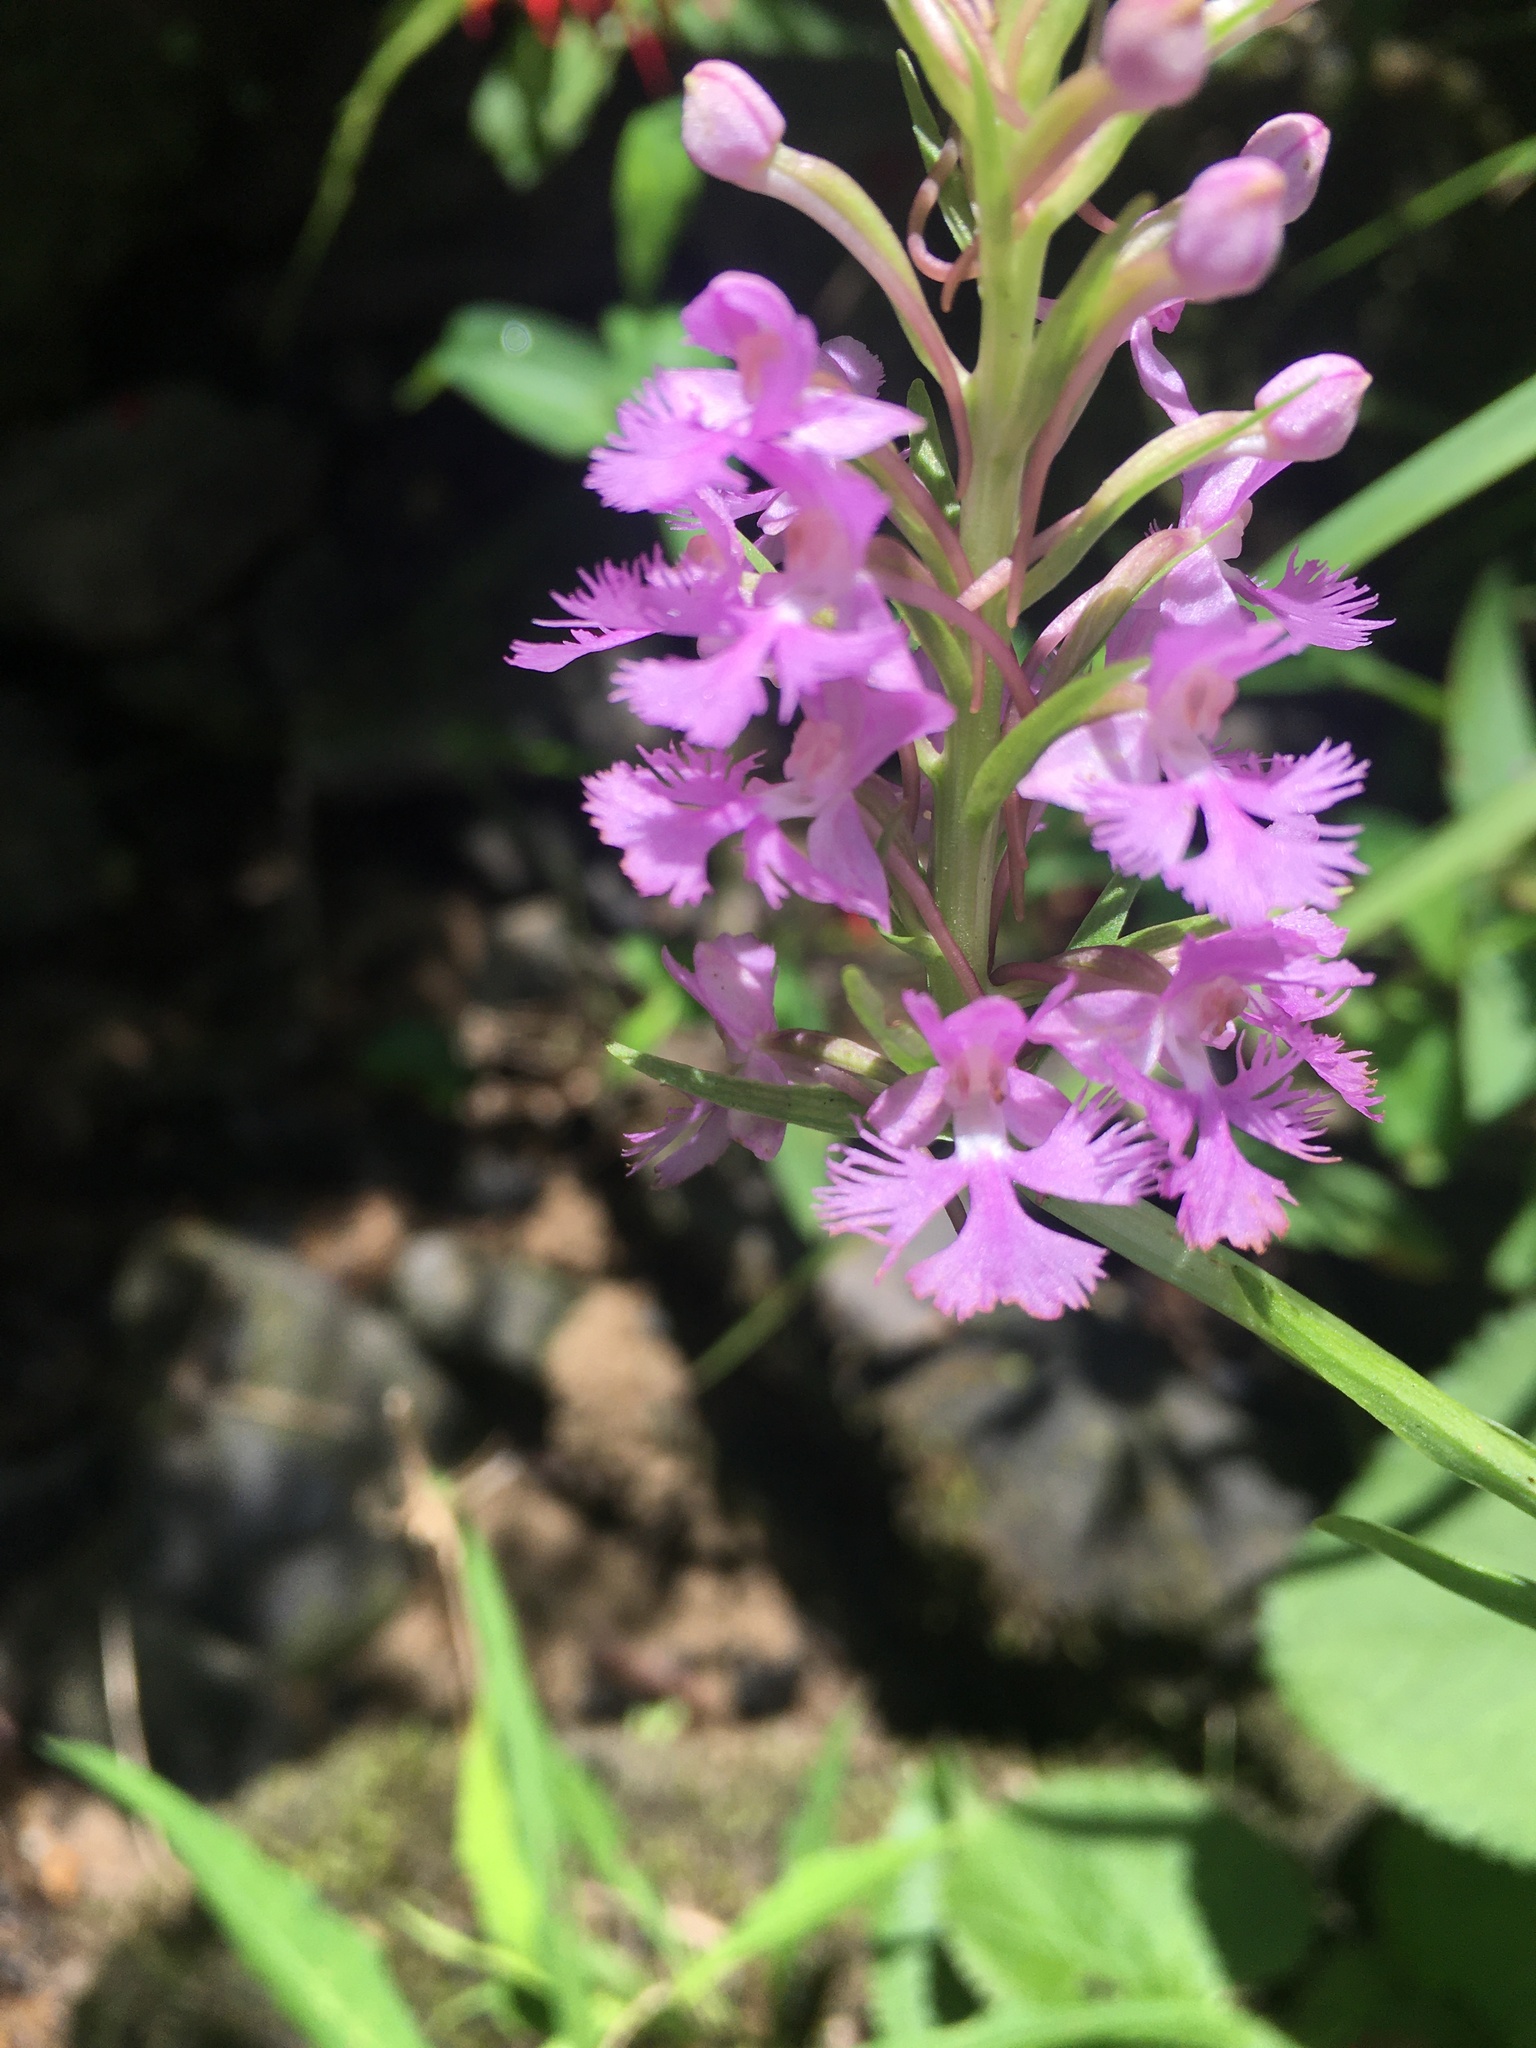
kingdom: Plantae
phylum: Tracheophyta
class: Liliopsida
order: Asparagales
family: Orchidaceae
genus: Platanthera
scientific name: Platanthera psycodes
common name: Lesser purple fringed orchid
